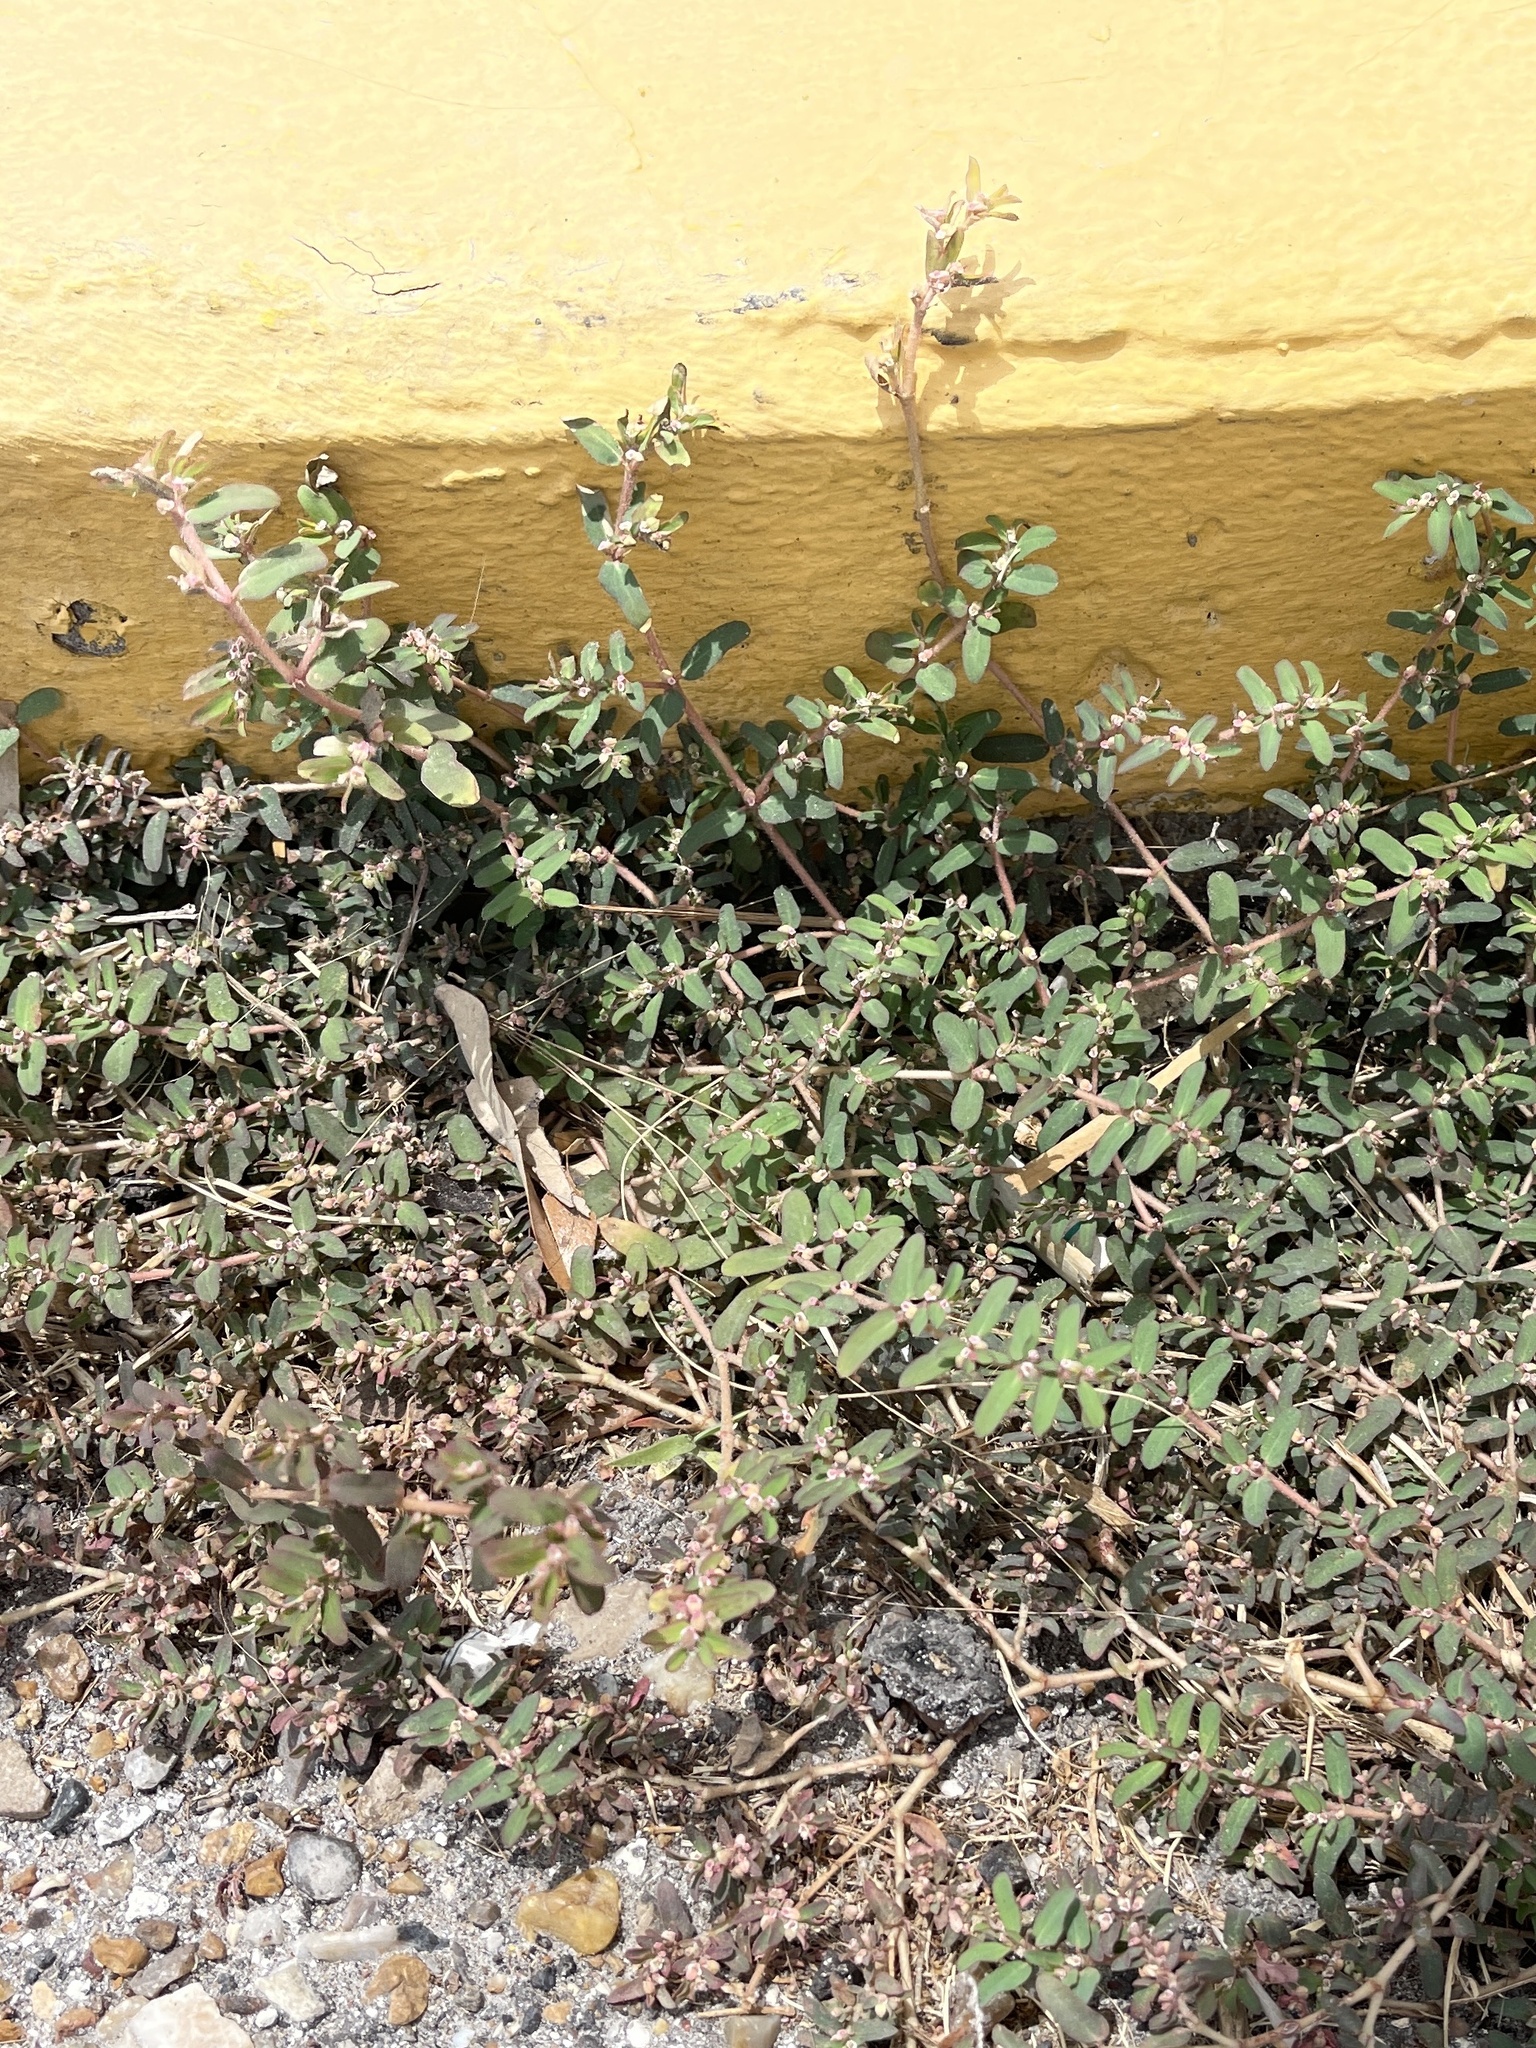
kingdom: Plantae
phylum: Tracheophyta
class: Magnoliopsida
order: Malpighiales
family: Euphorbiaceae
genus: Euphorbia
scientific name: Euphorbia maculata
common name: Spotted spurge
